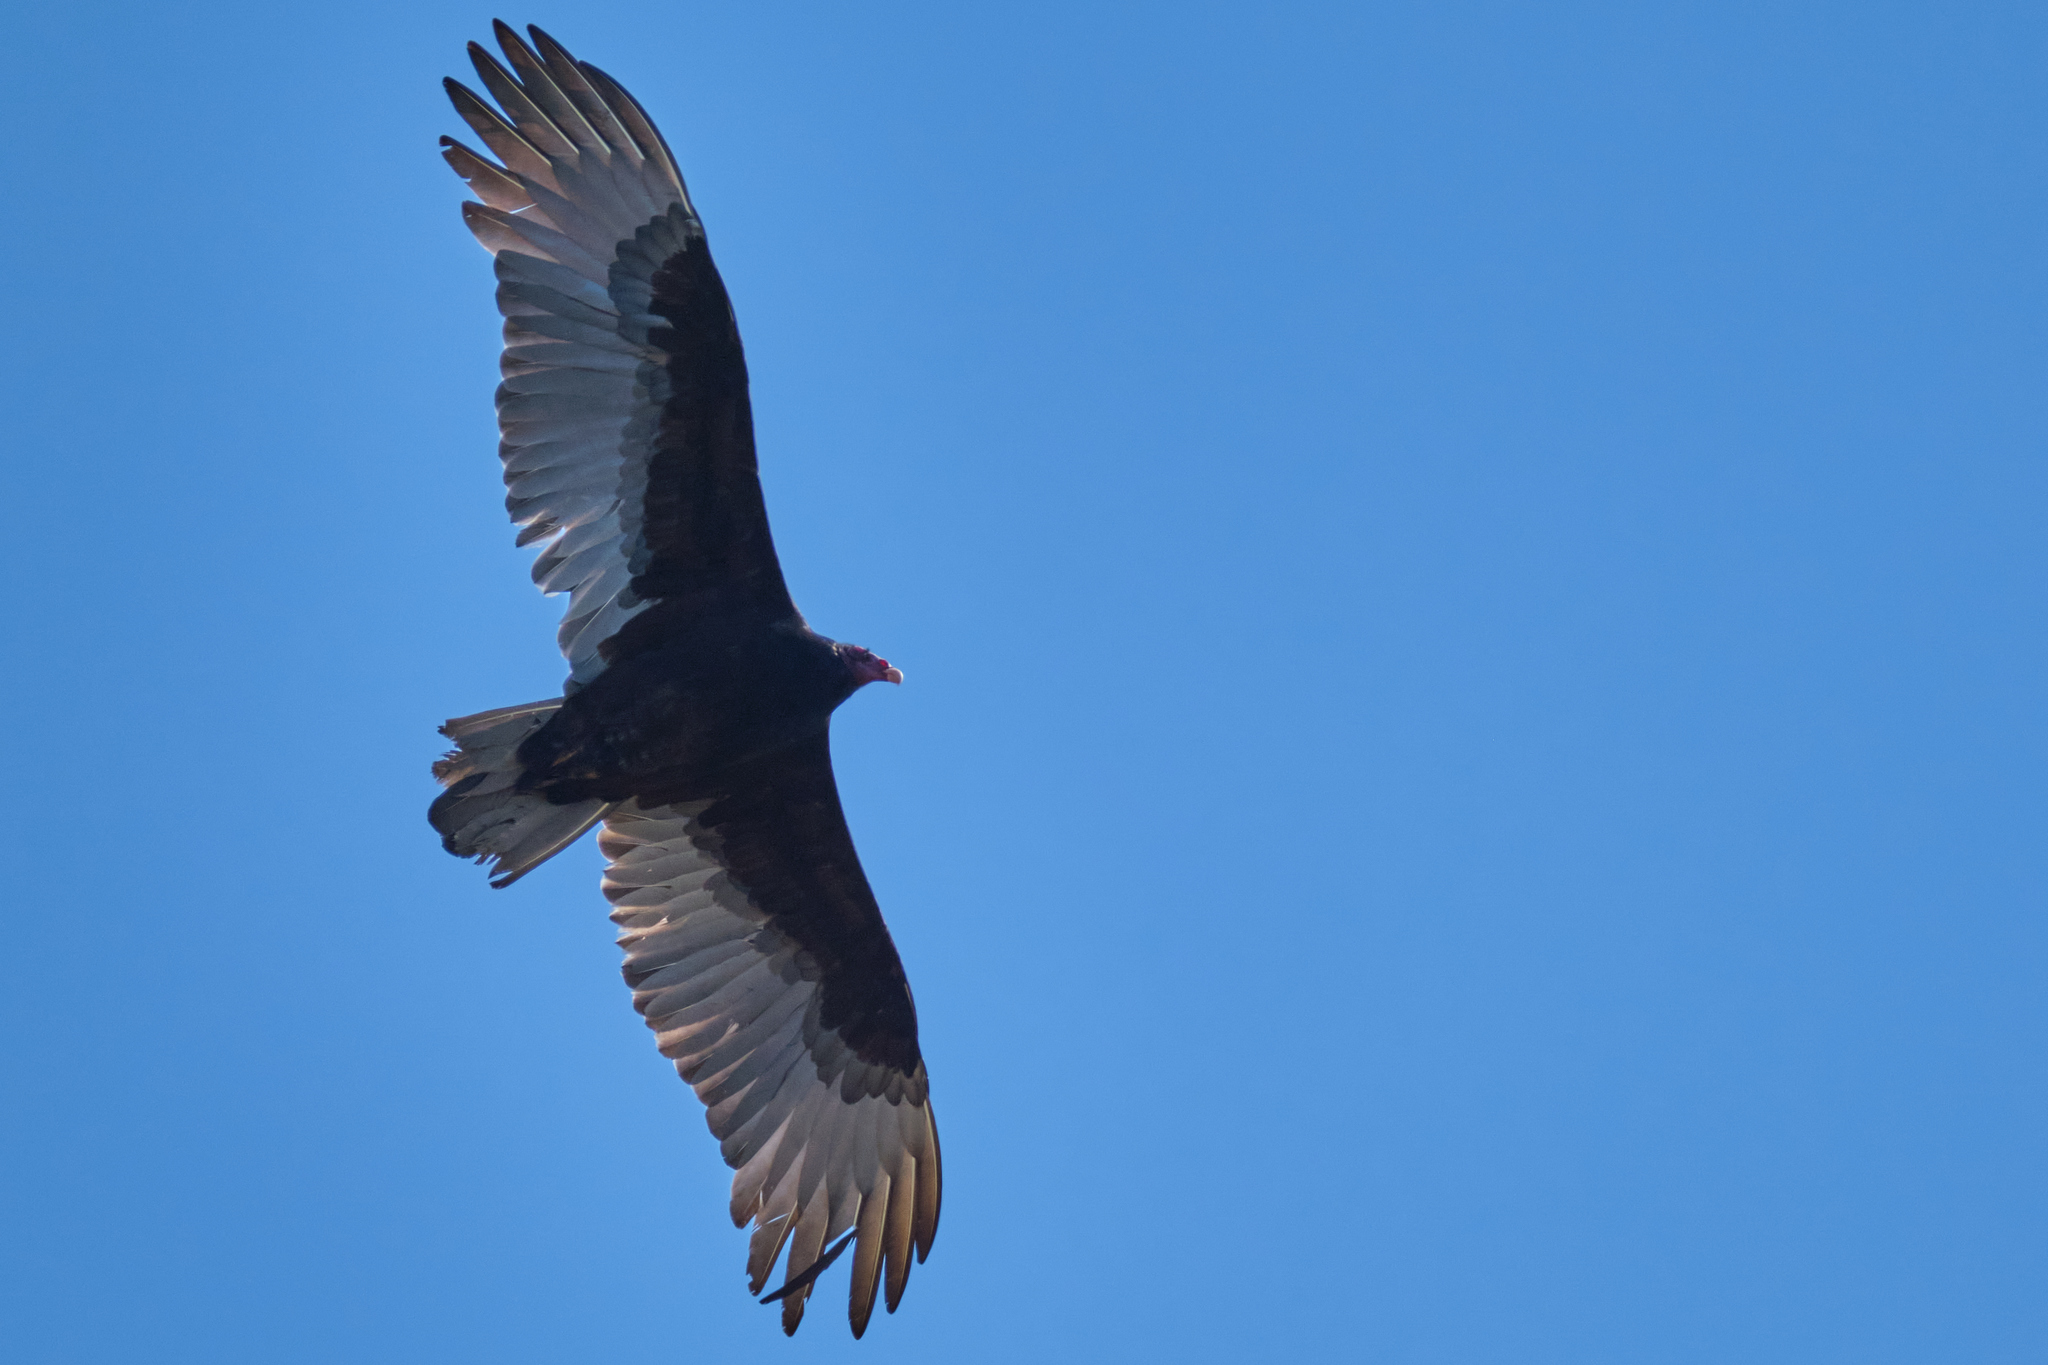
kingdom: Animalia
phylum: Chordata
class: Aves
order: Accipitriformes
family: Cathartidae
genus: Cathartes
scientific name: Cathartes aura
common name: Turkey vulture
